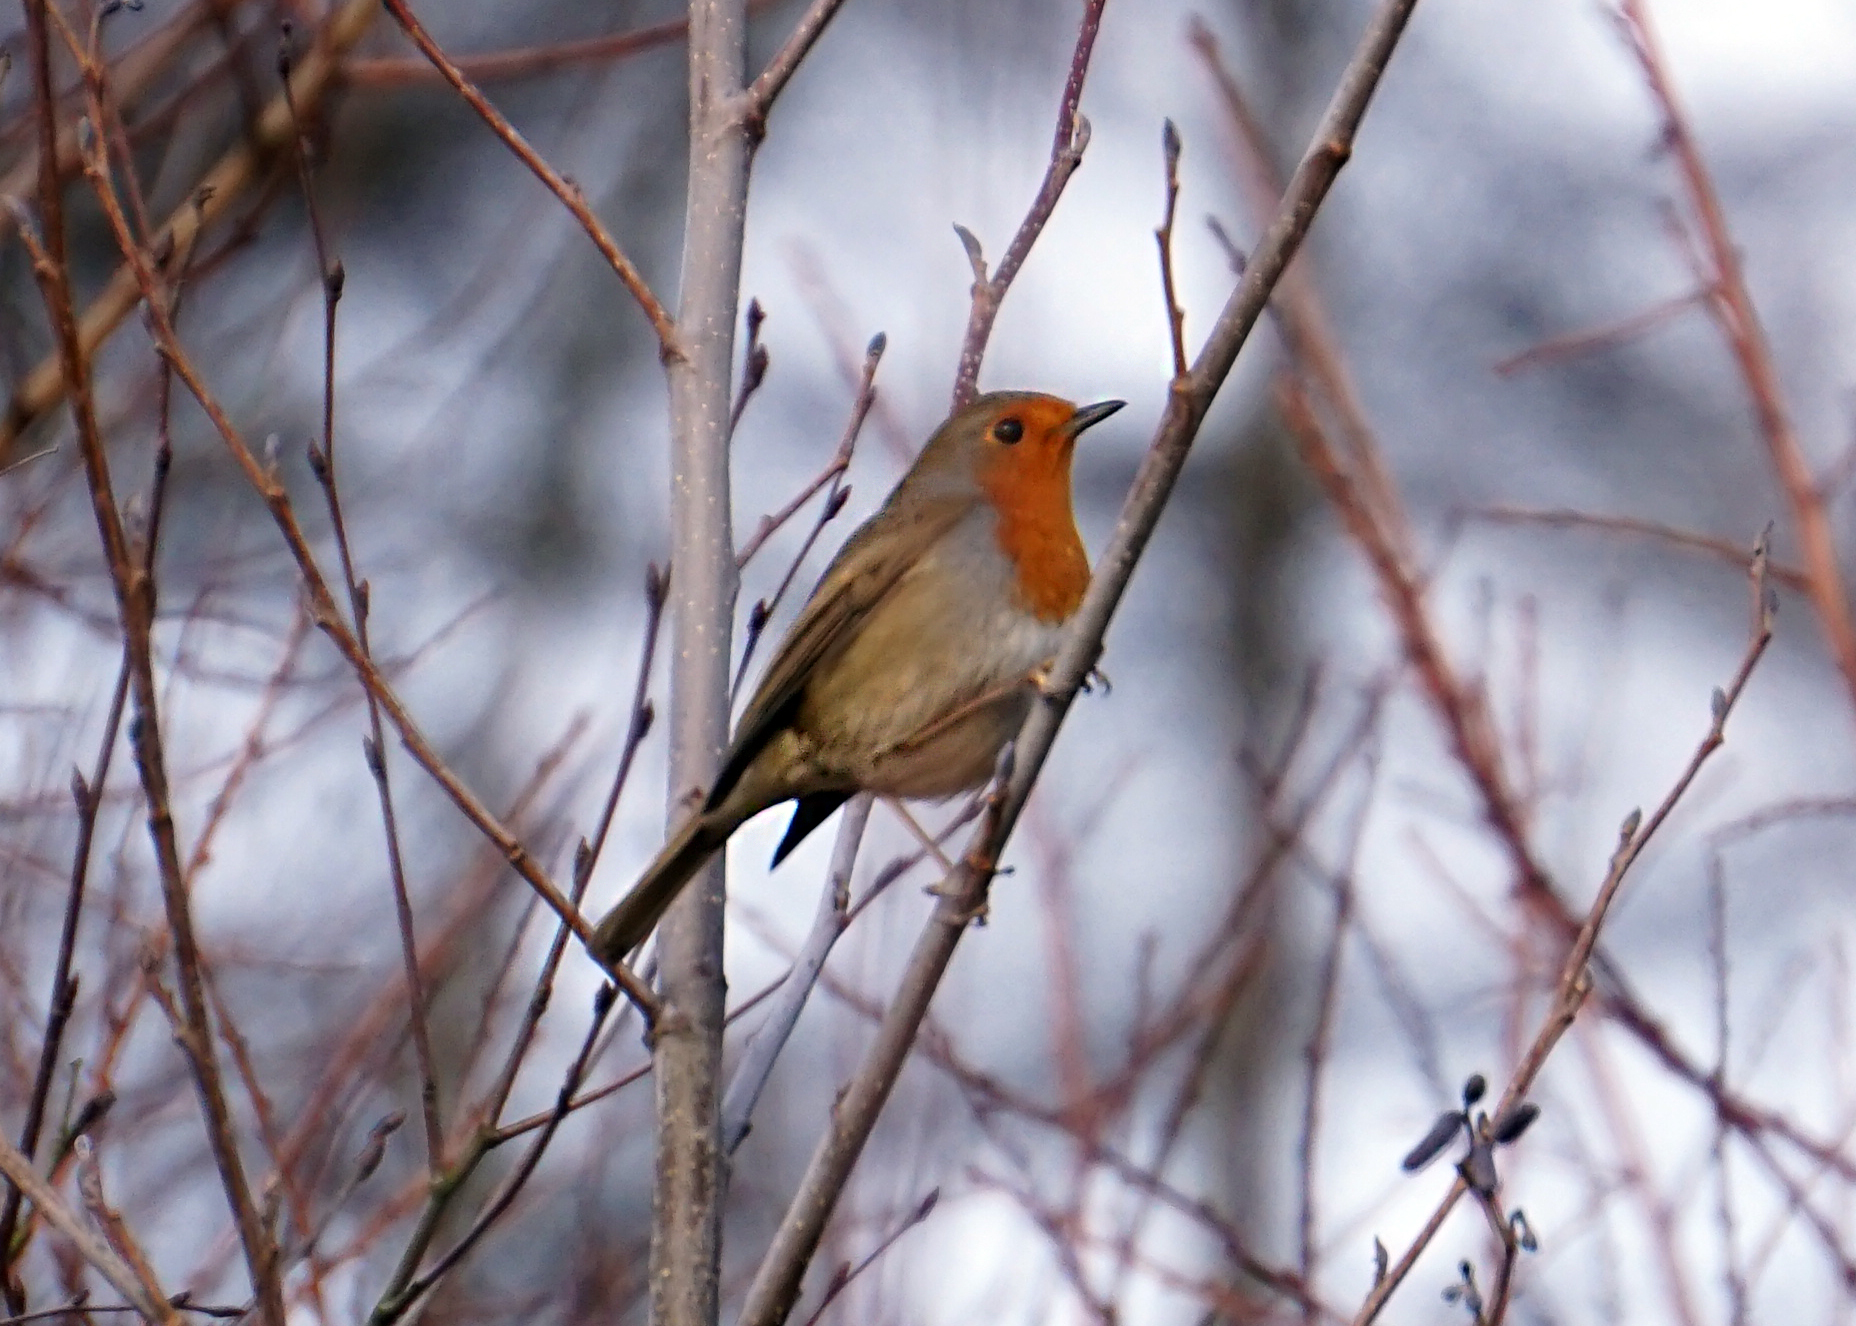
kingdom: Animalia
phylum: Chordata
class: Aves
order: Passeriformes
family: Muscicapidae
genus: Erithacus
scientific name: Erithacus rubecula
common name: European robin
